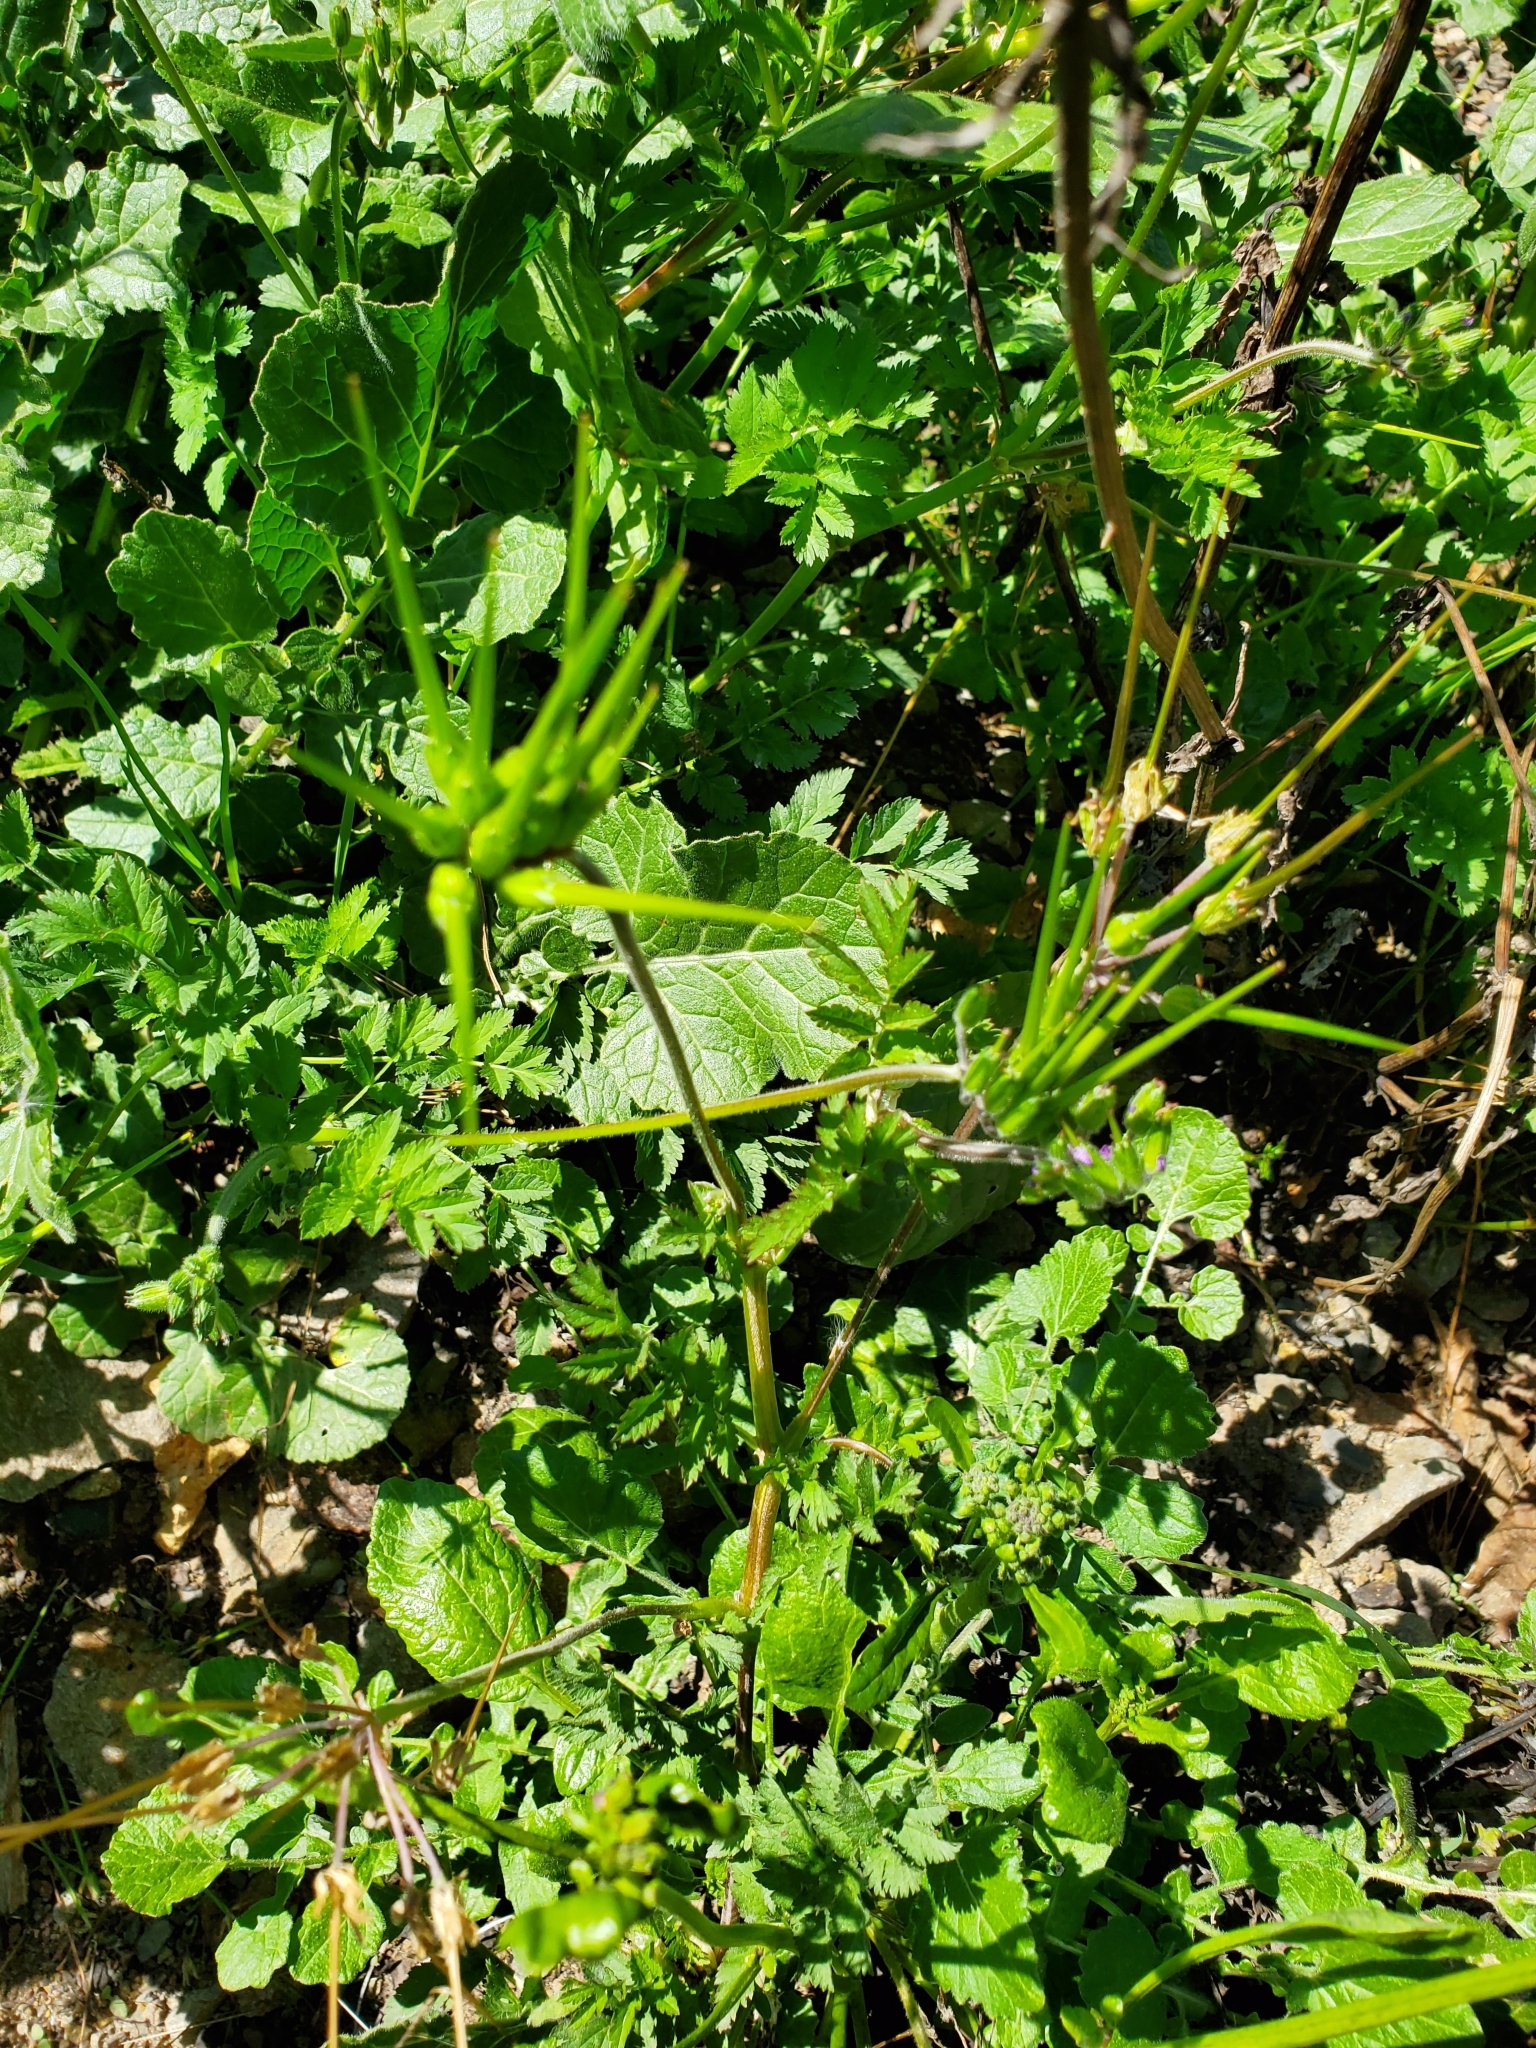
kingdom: Plantae
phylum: Tracheophyta
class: Magnoliopsida
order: Geraniales
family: Geraniaceae
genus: Erodium
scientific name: Erodium moschatum
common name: Musk stork's-bill
